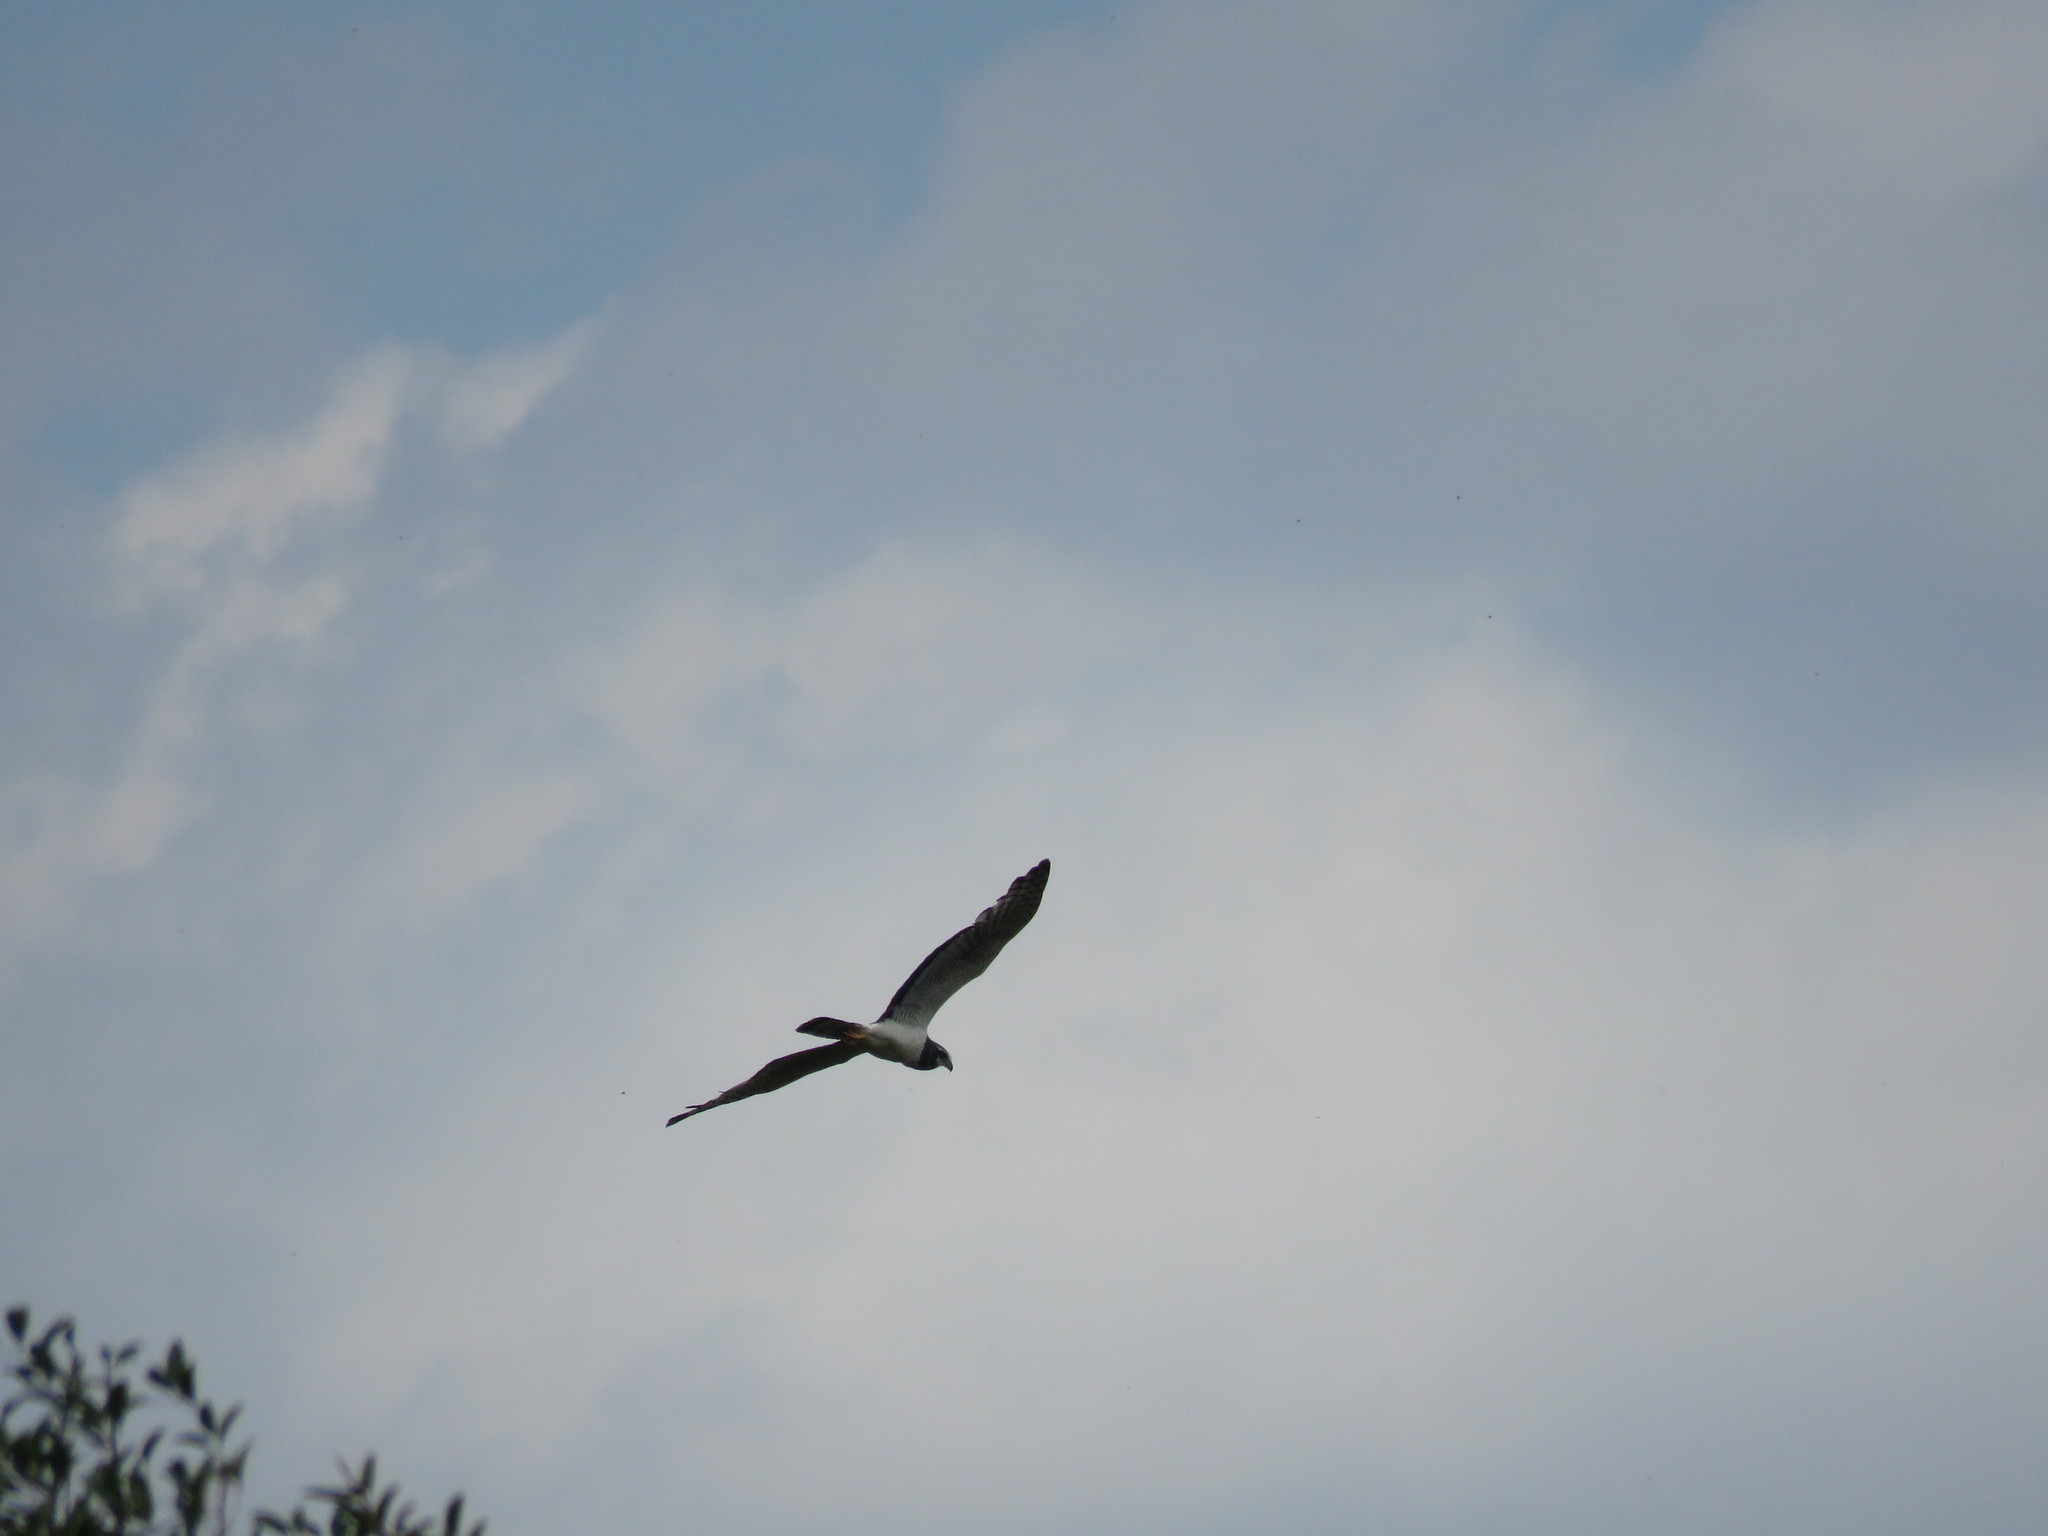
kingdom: Animalia
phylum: Chordata
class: Aves
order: Accipitriformes
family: Accipitridae
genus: Circus
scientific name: Circus buffoni
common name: Long-winged harrier
